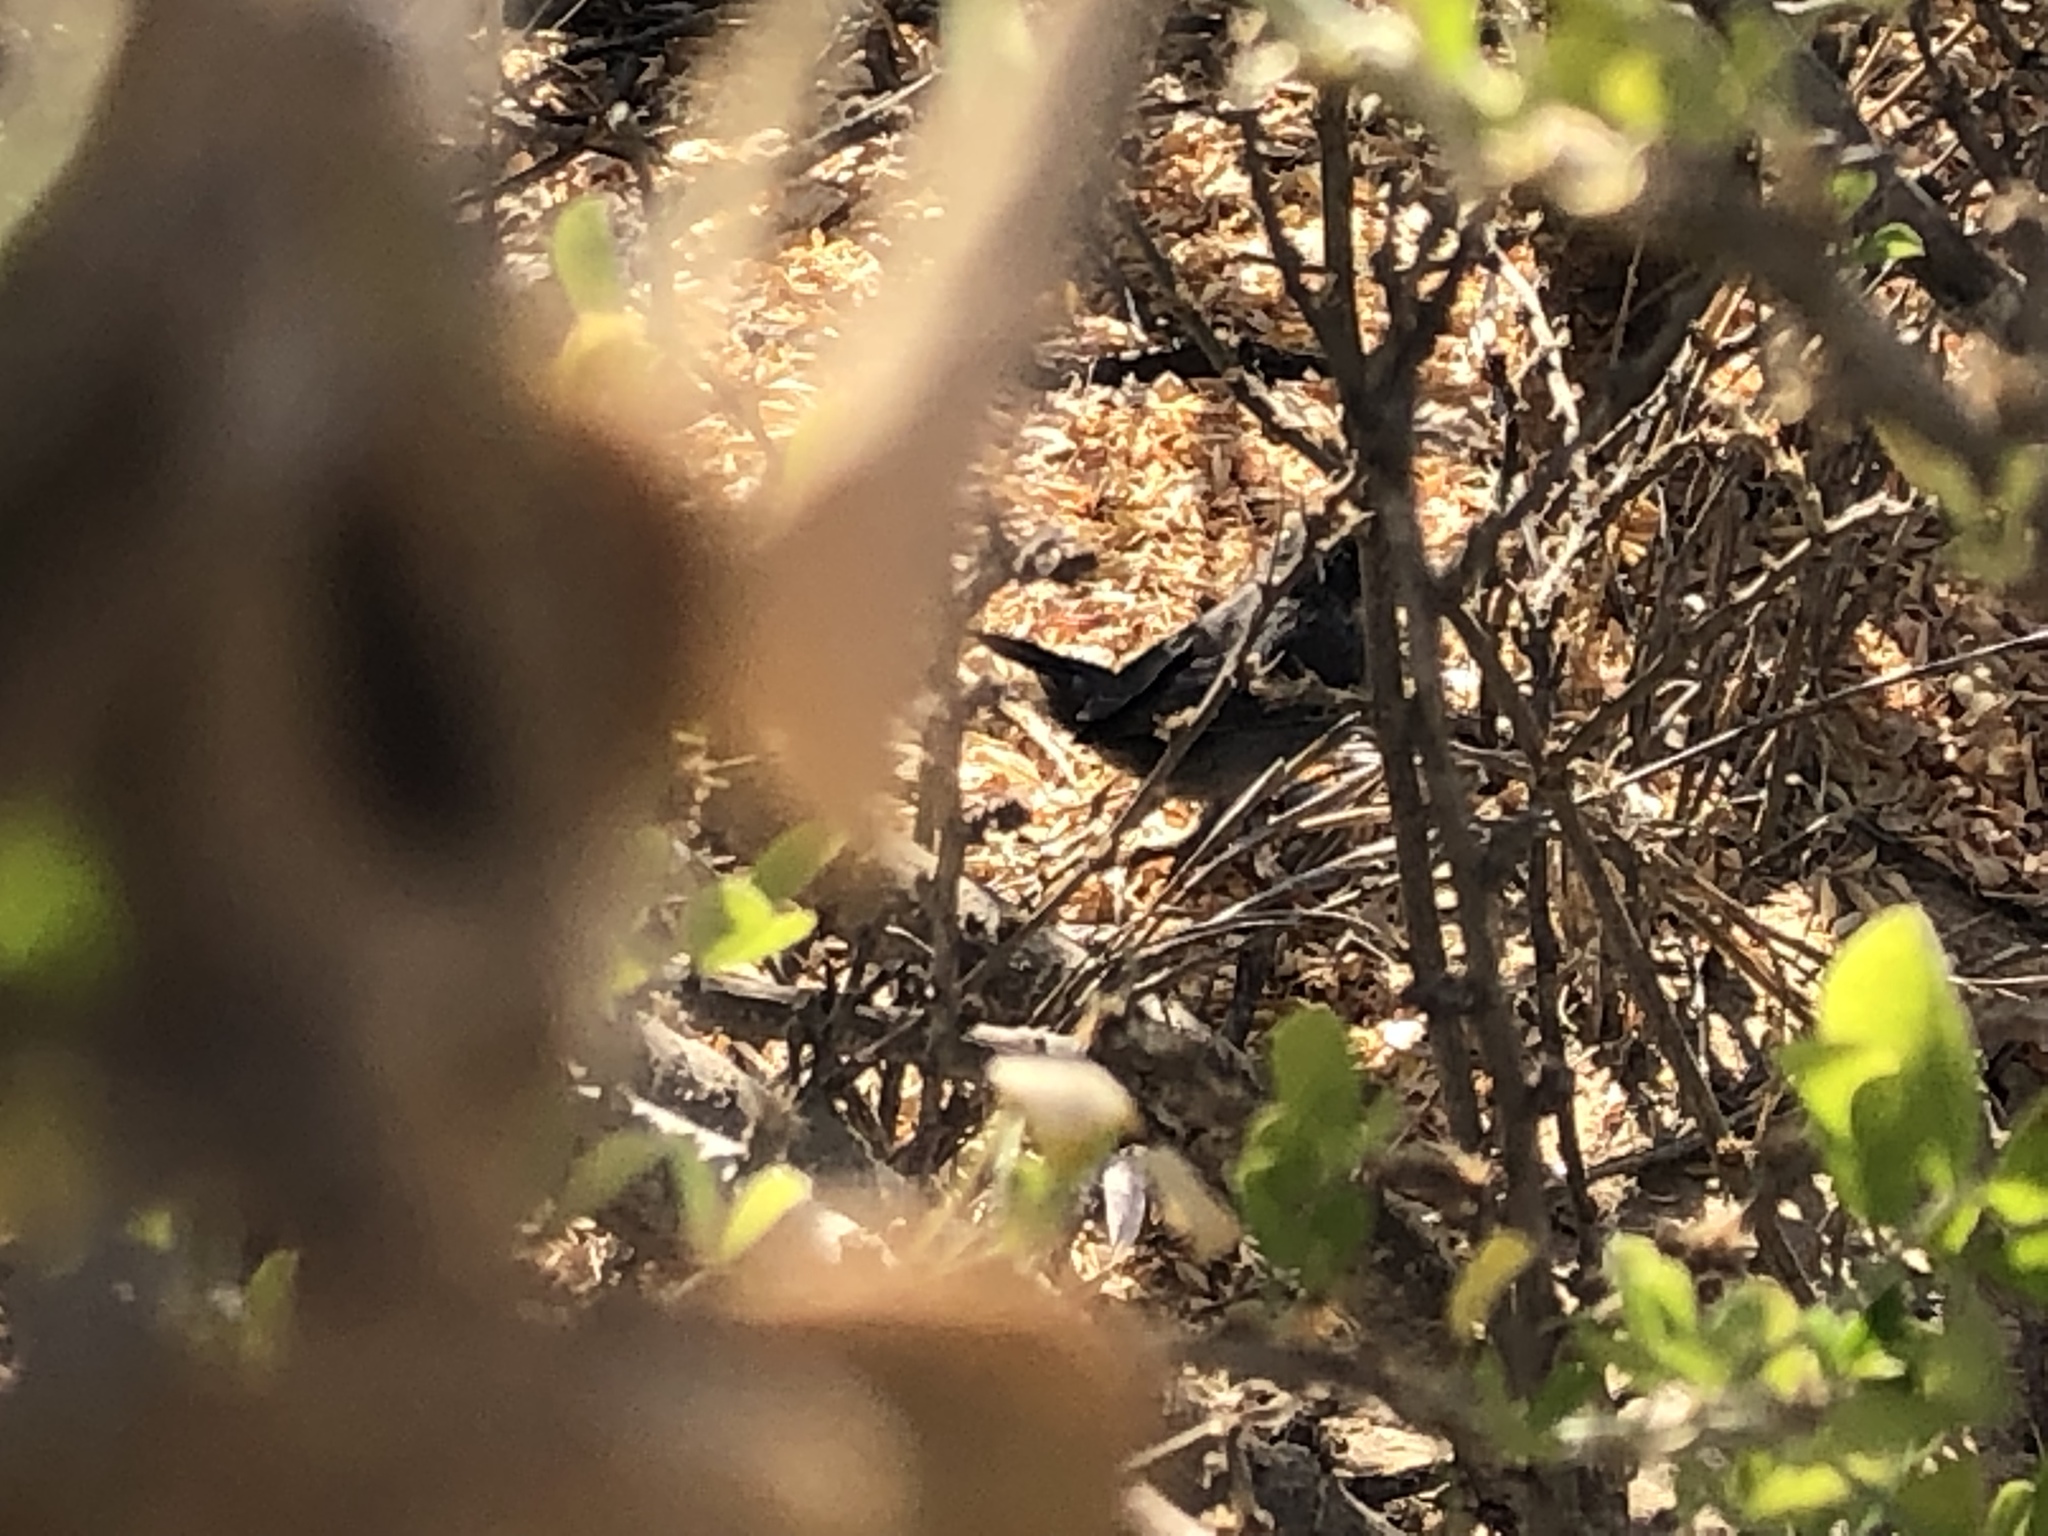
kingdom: Animalia
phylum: Chordata
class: Aves
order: Passeriformes
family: Sylviidae
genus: Curruca
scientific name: Curruca melanocephala
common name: Sardinian warbler
